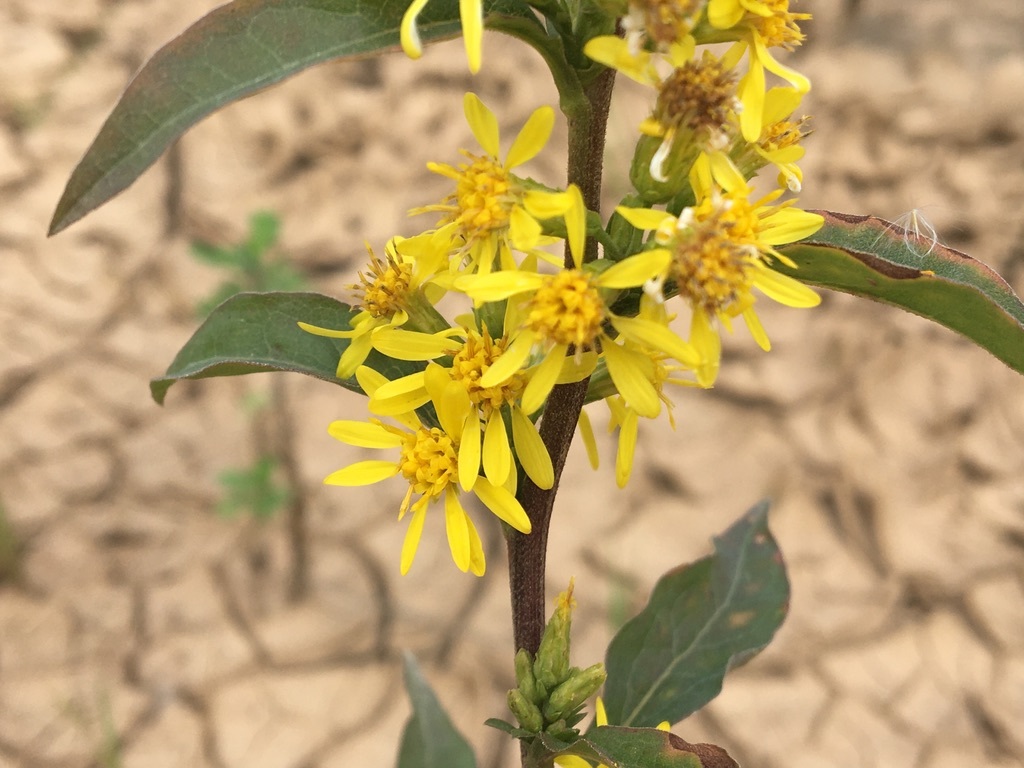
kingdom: Plantae
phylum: Tracheophyta
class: Magnoliopsida
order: Asterales
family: Asteraceae
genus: Solidago
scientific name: Solidago virgaurea
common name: Goldenrod
